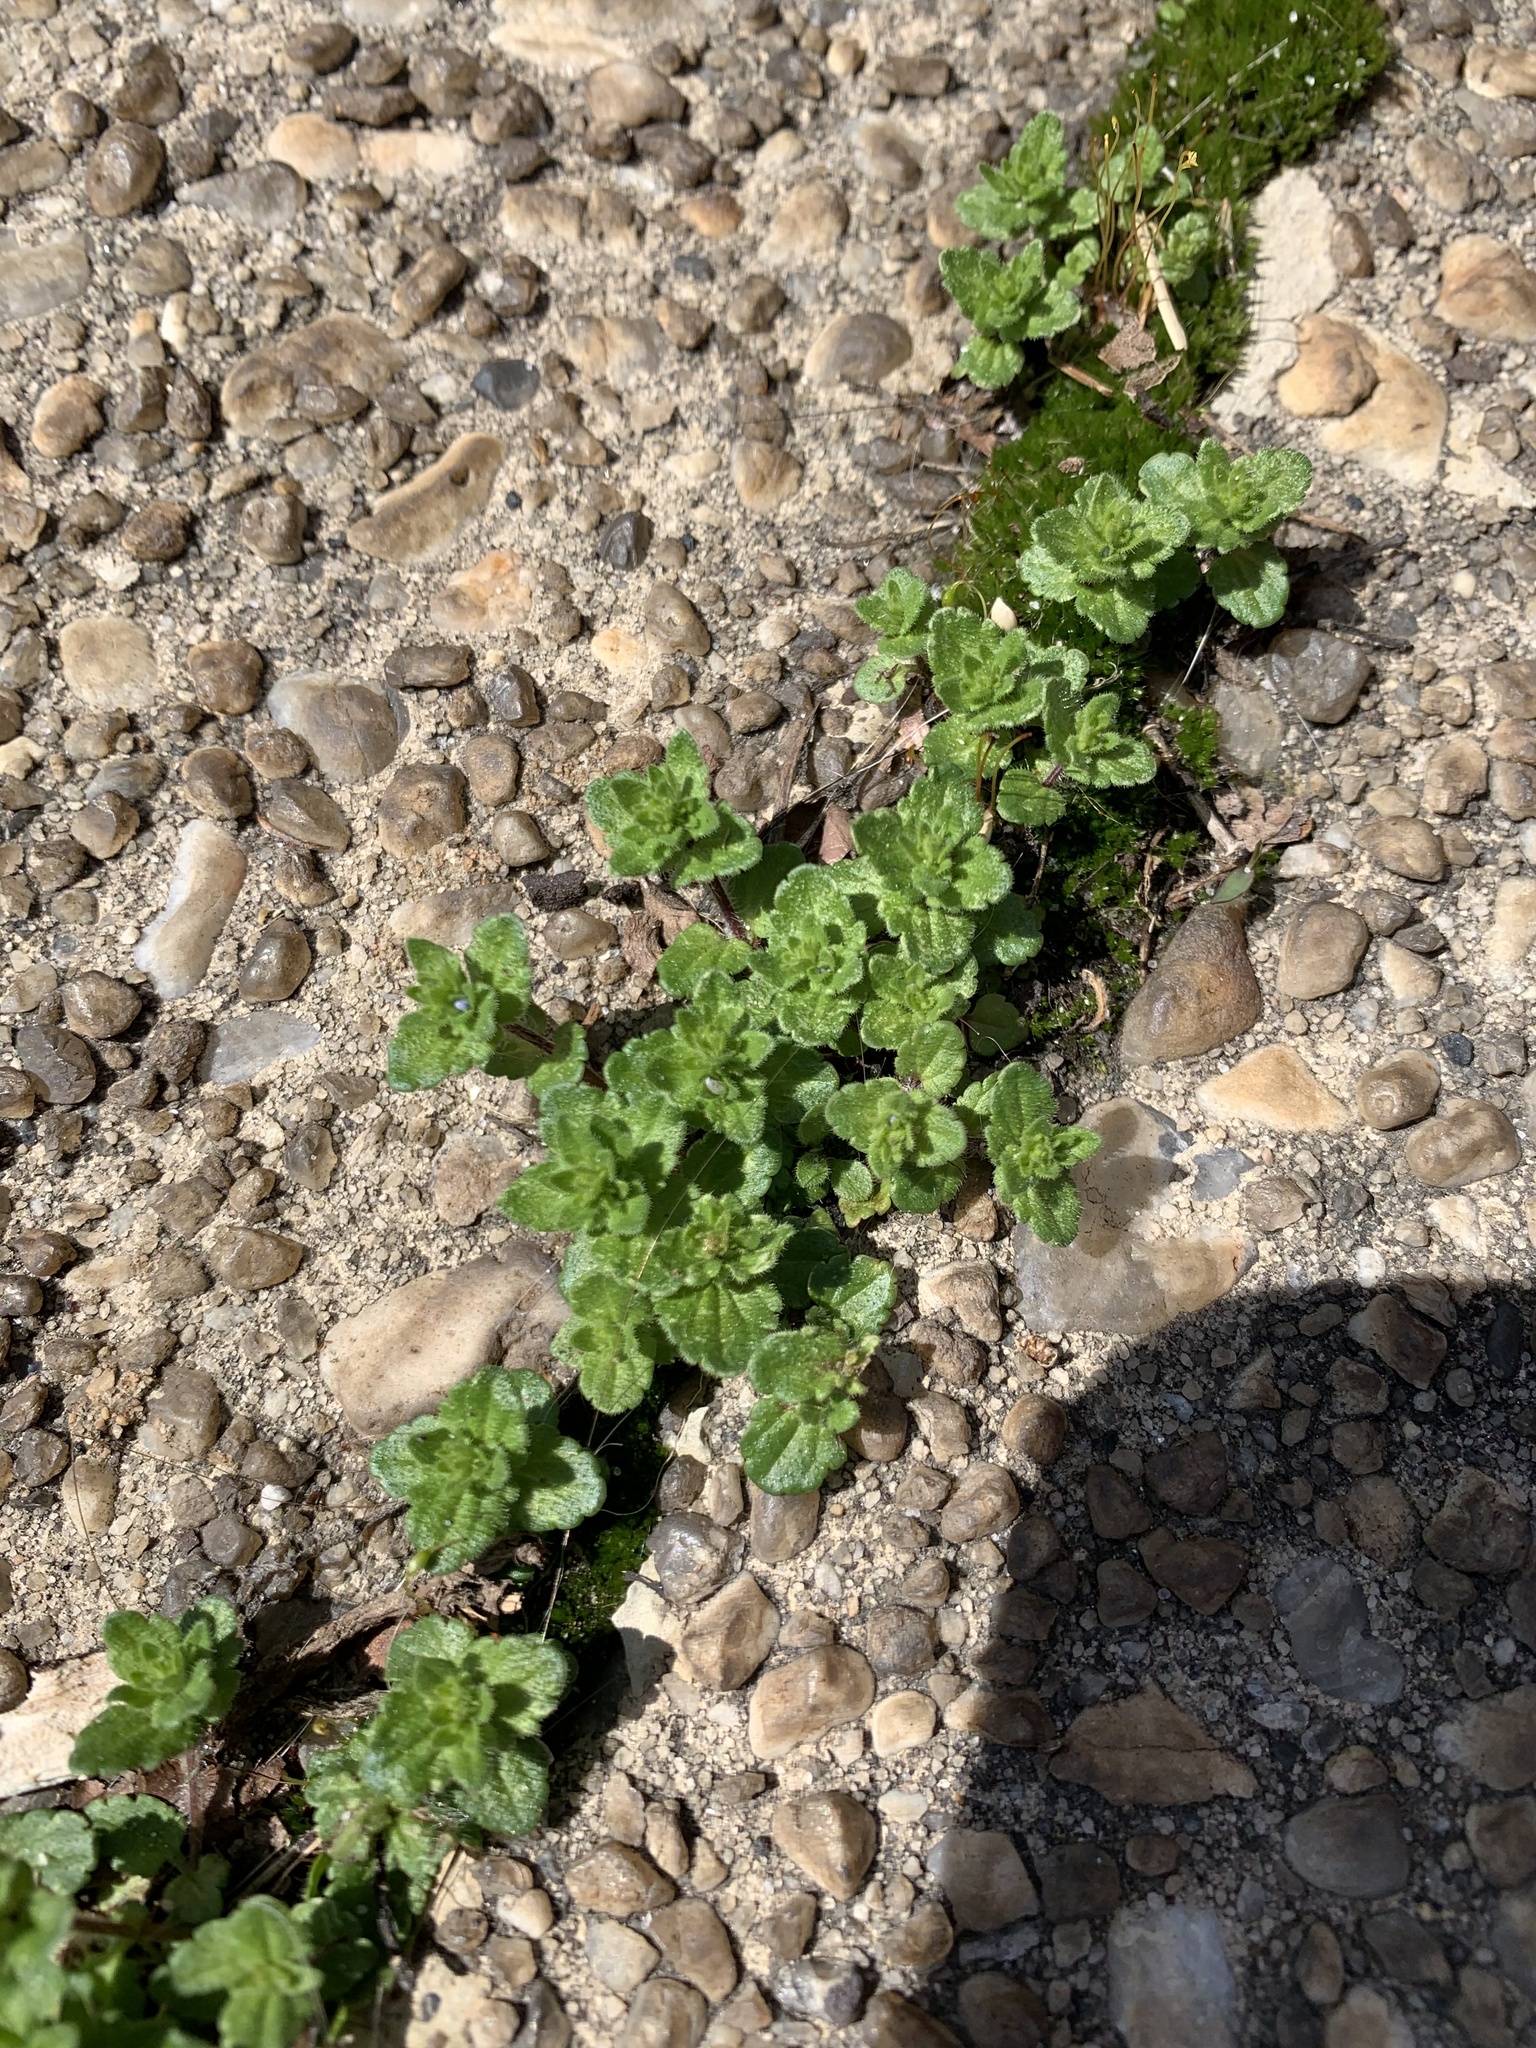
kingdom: Plantae
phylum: Tracheophyta
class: Magnoliopsida
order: Lamiales
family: Plantaginaceae
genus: Veronica
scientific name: Veronica arvensis
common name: Corn speedwell
